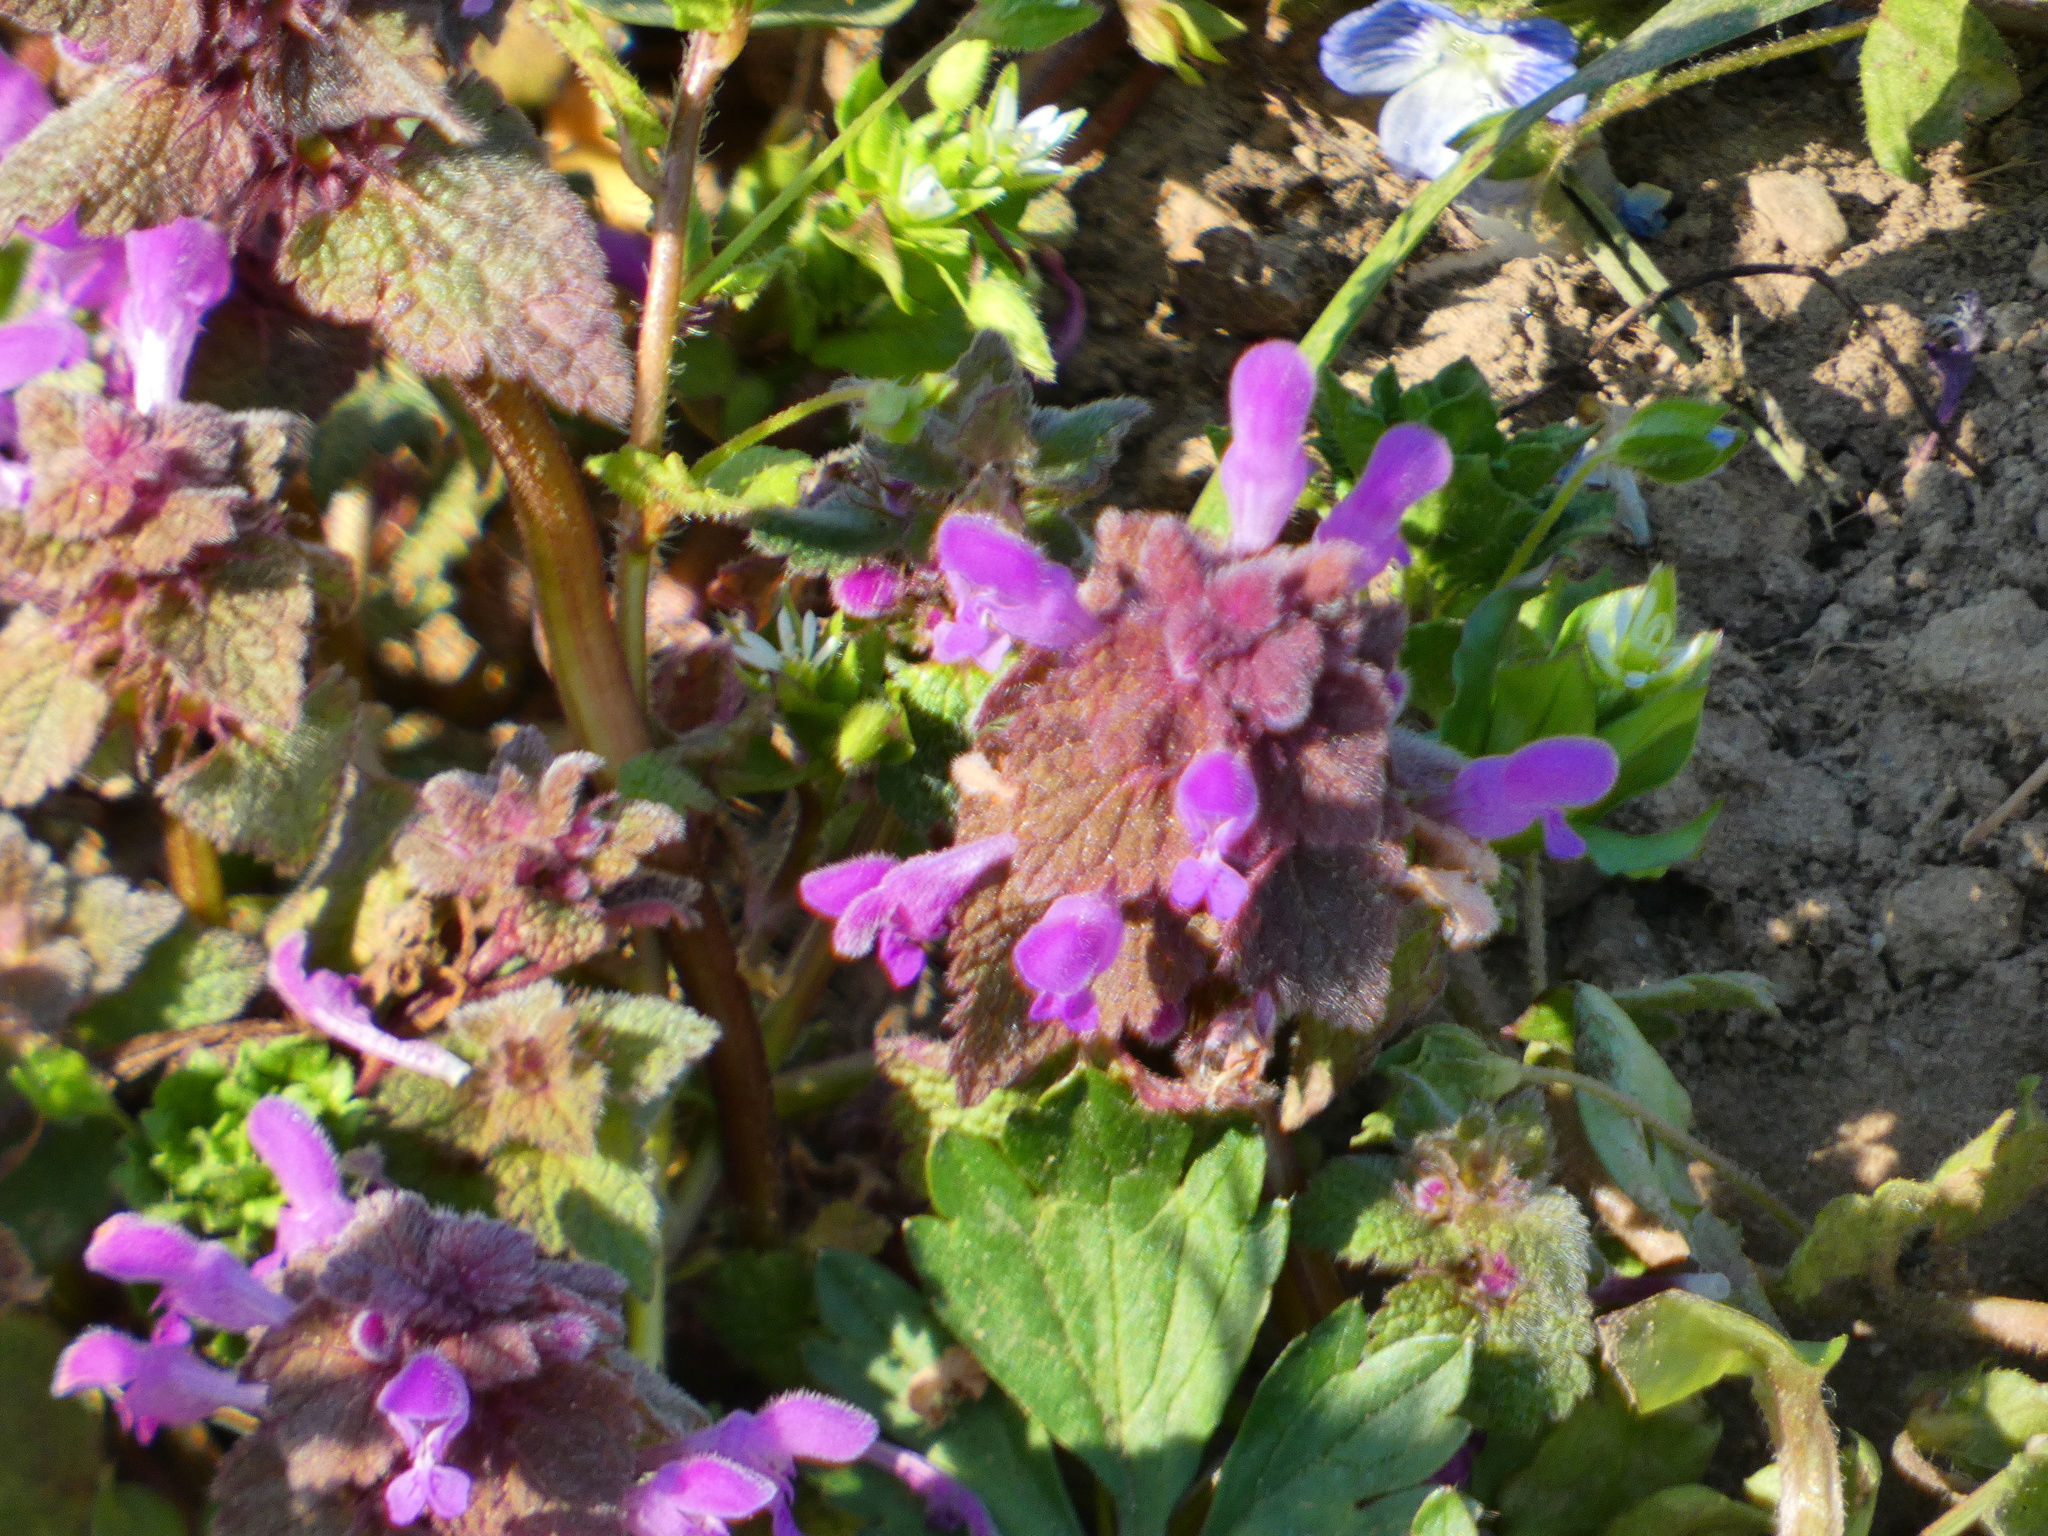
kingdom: Plantae
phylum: Tracheophyta
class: Magnoliopsida
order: Lamiales
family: Lamiaceae
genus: Lamium
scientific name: Lamium purpureum
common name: Red dead-nettle
